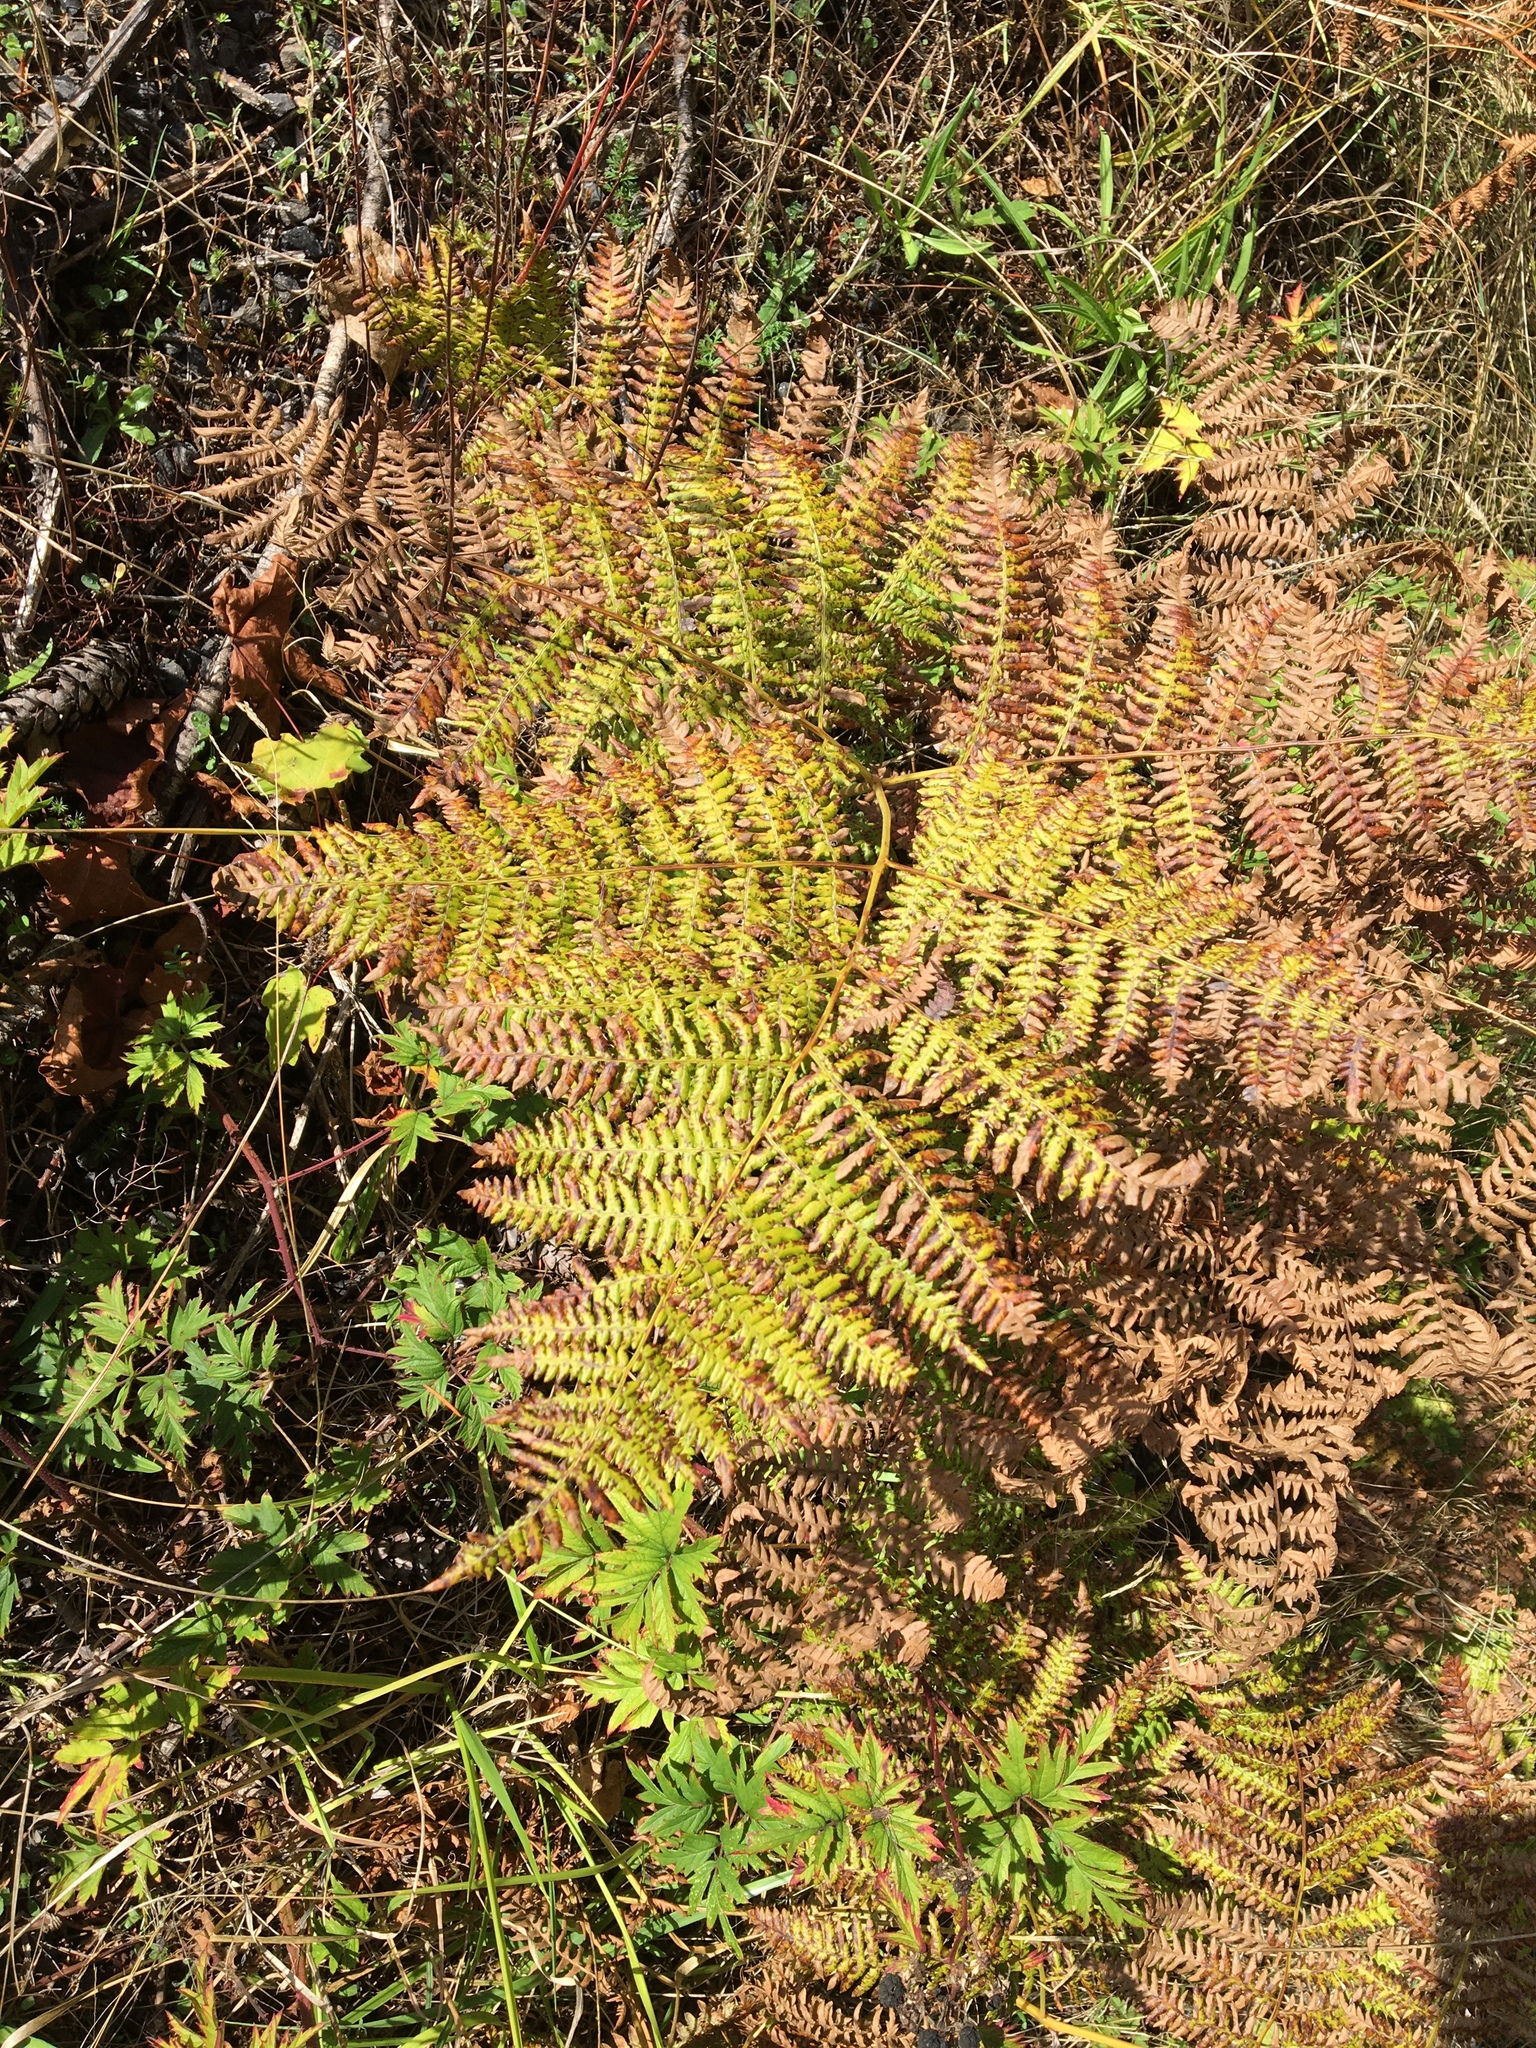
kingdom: Plantae
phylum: Tracheophyta
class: Polypodiopsida
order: Polypodiales
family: Dennstaedtiaceae
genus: Pteridium
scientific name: Pteridium aquilinum
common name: Bracken
